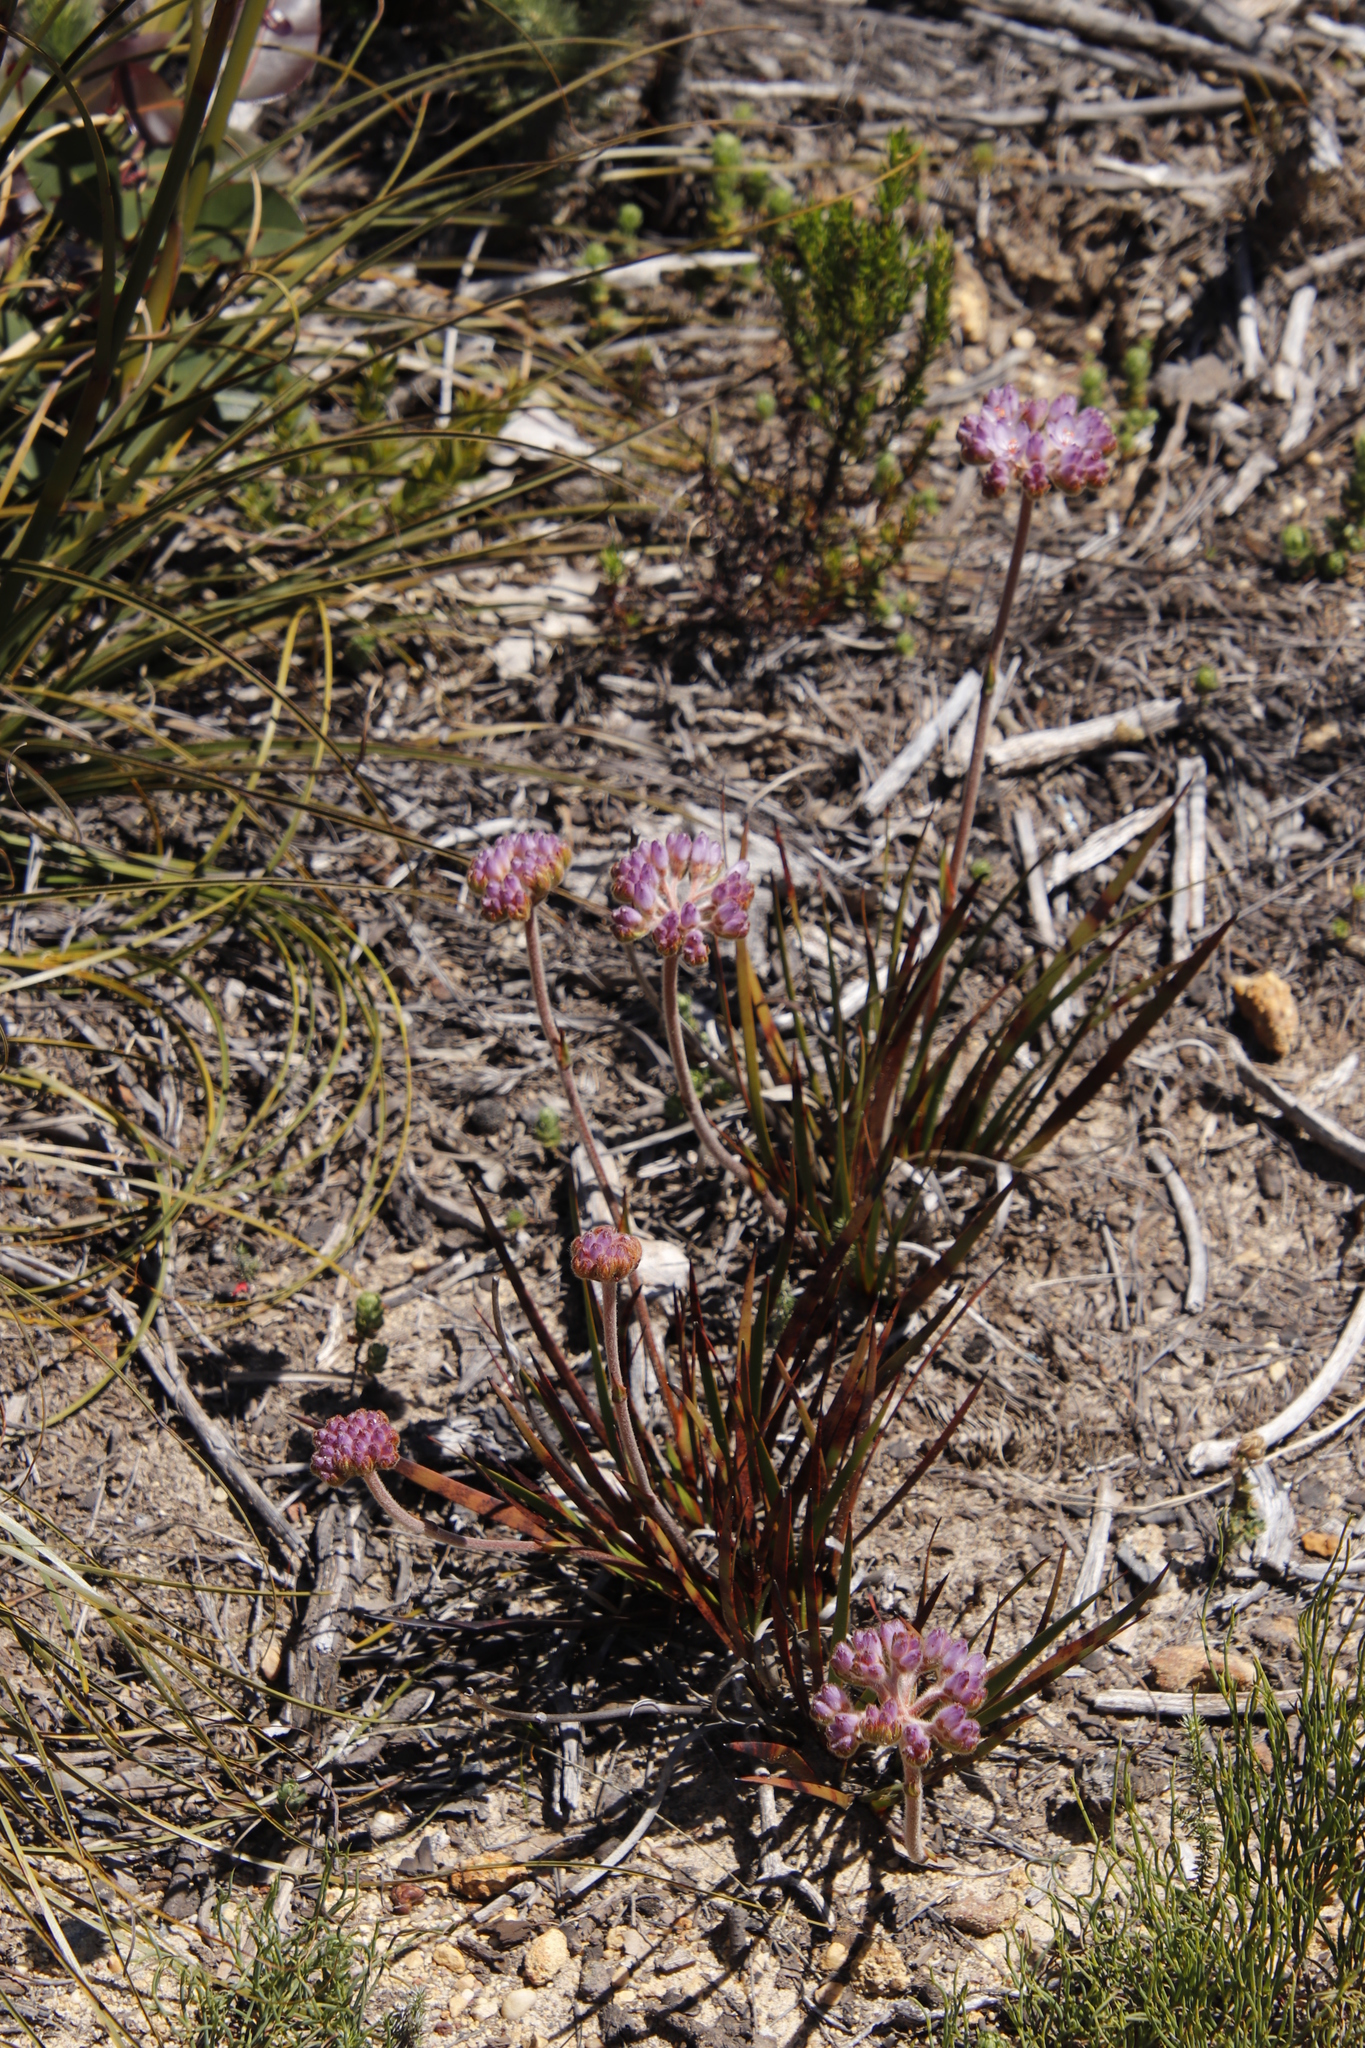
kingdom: Plantae
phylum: Tracheophyta
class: Liliopsida
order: Commelinales
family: Haemodoraceae
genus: Dilatris
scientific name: Dilatris pillansii
